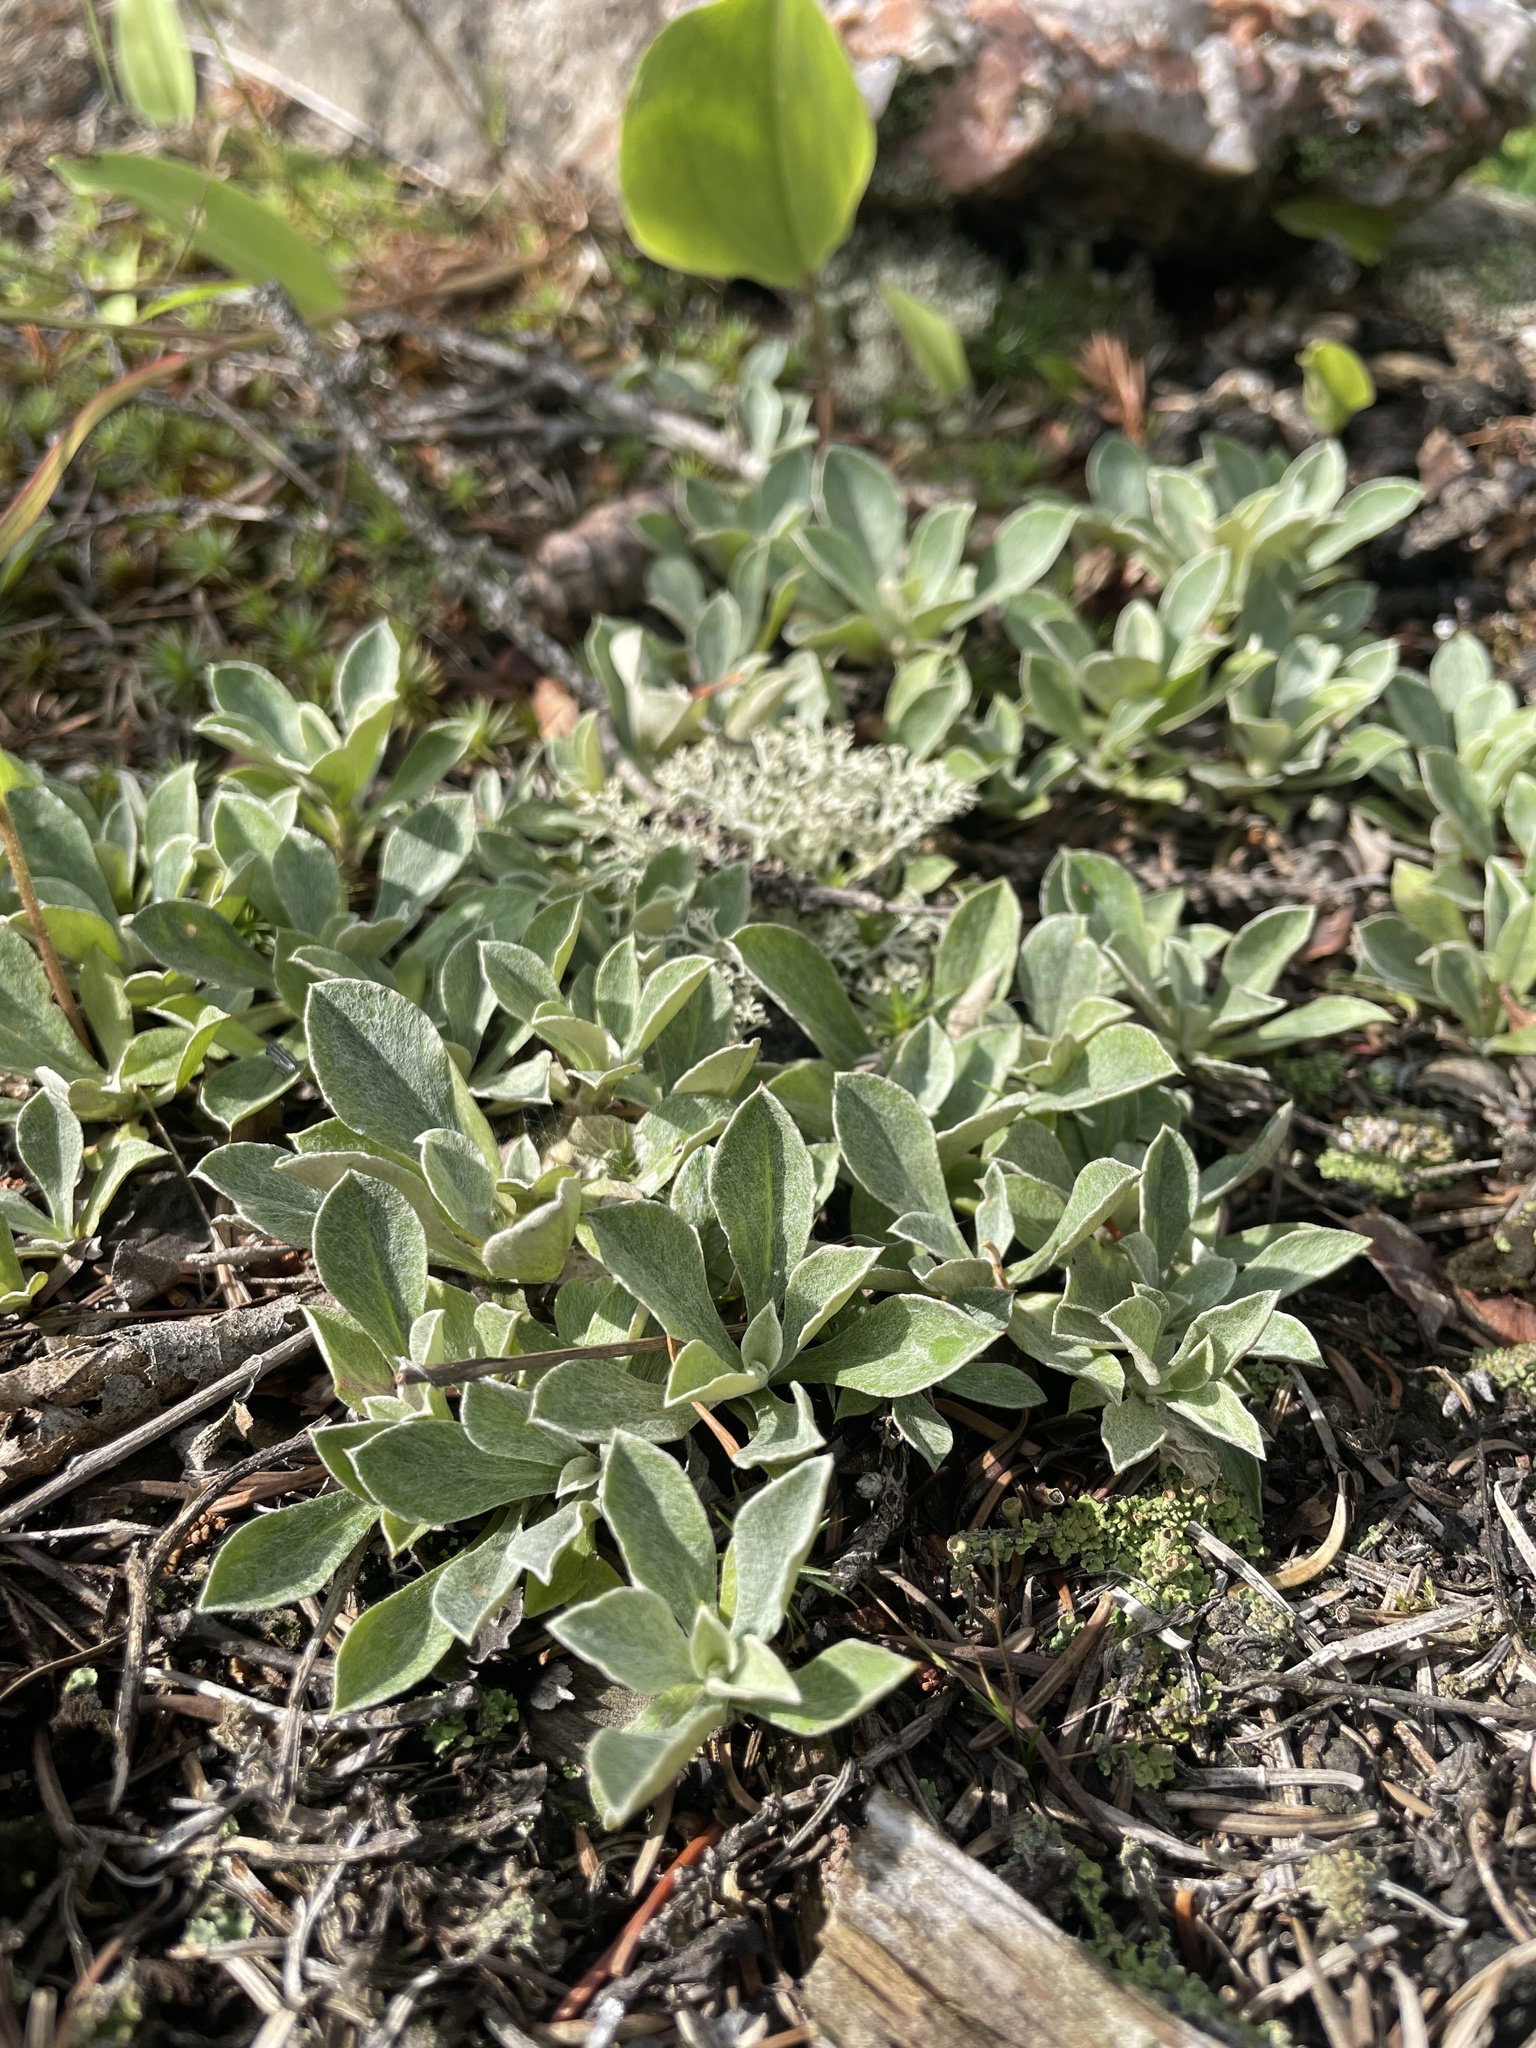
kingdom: Plantae
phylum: Tracheophyta
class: Magnoliopsida
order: Asterales
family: Asteraceae
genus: Antennaria
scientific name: Antennaria howellii
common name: Howell's pussytoes
